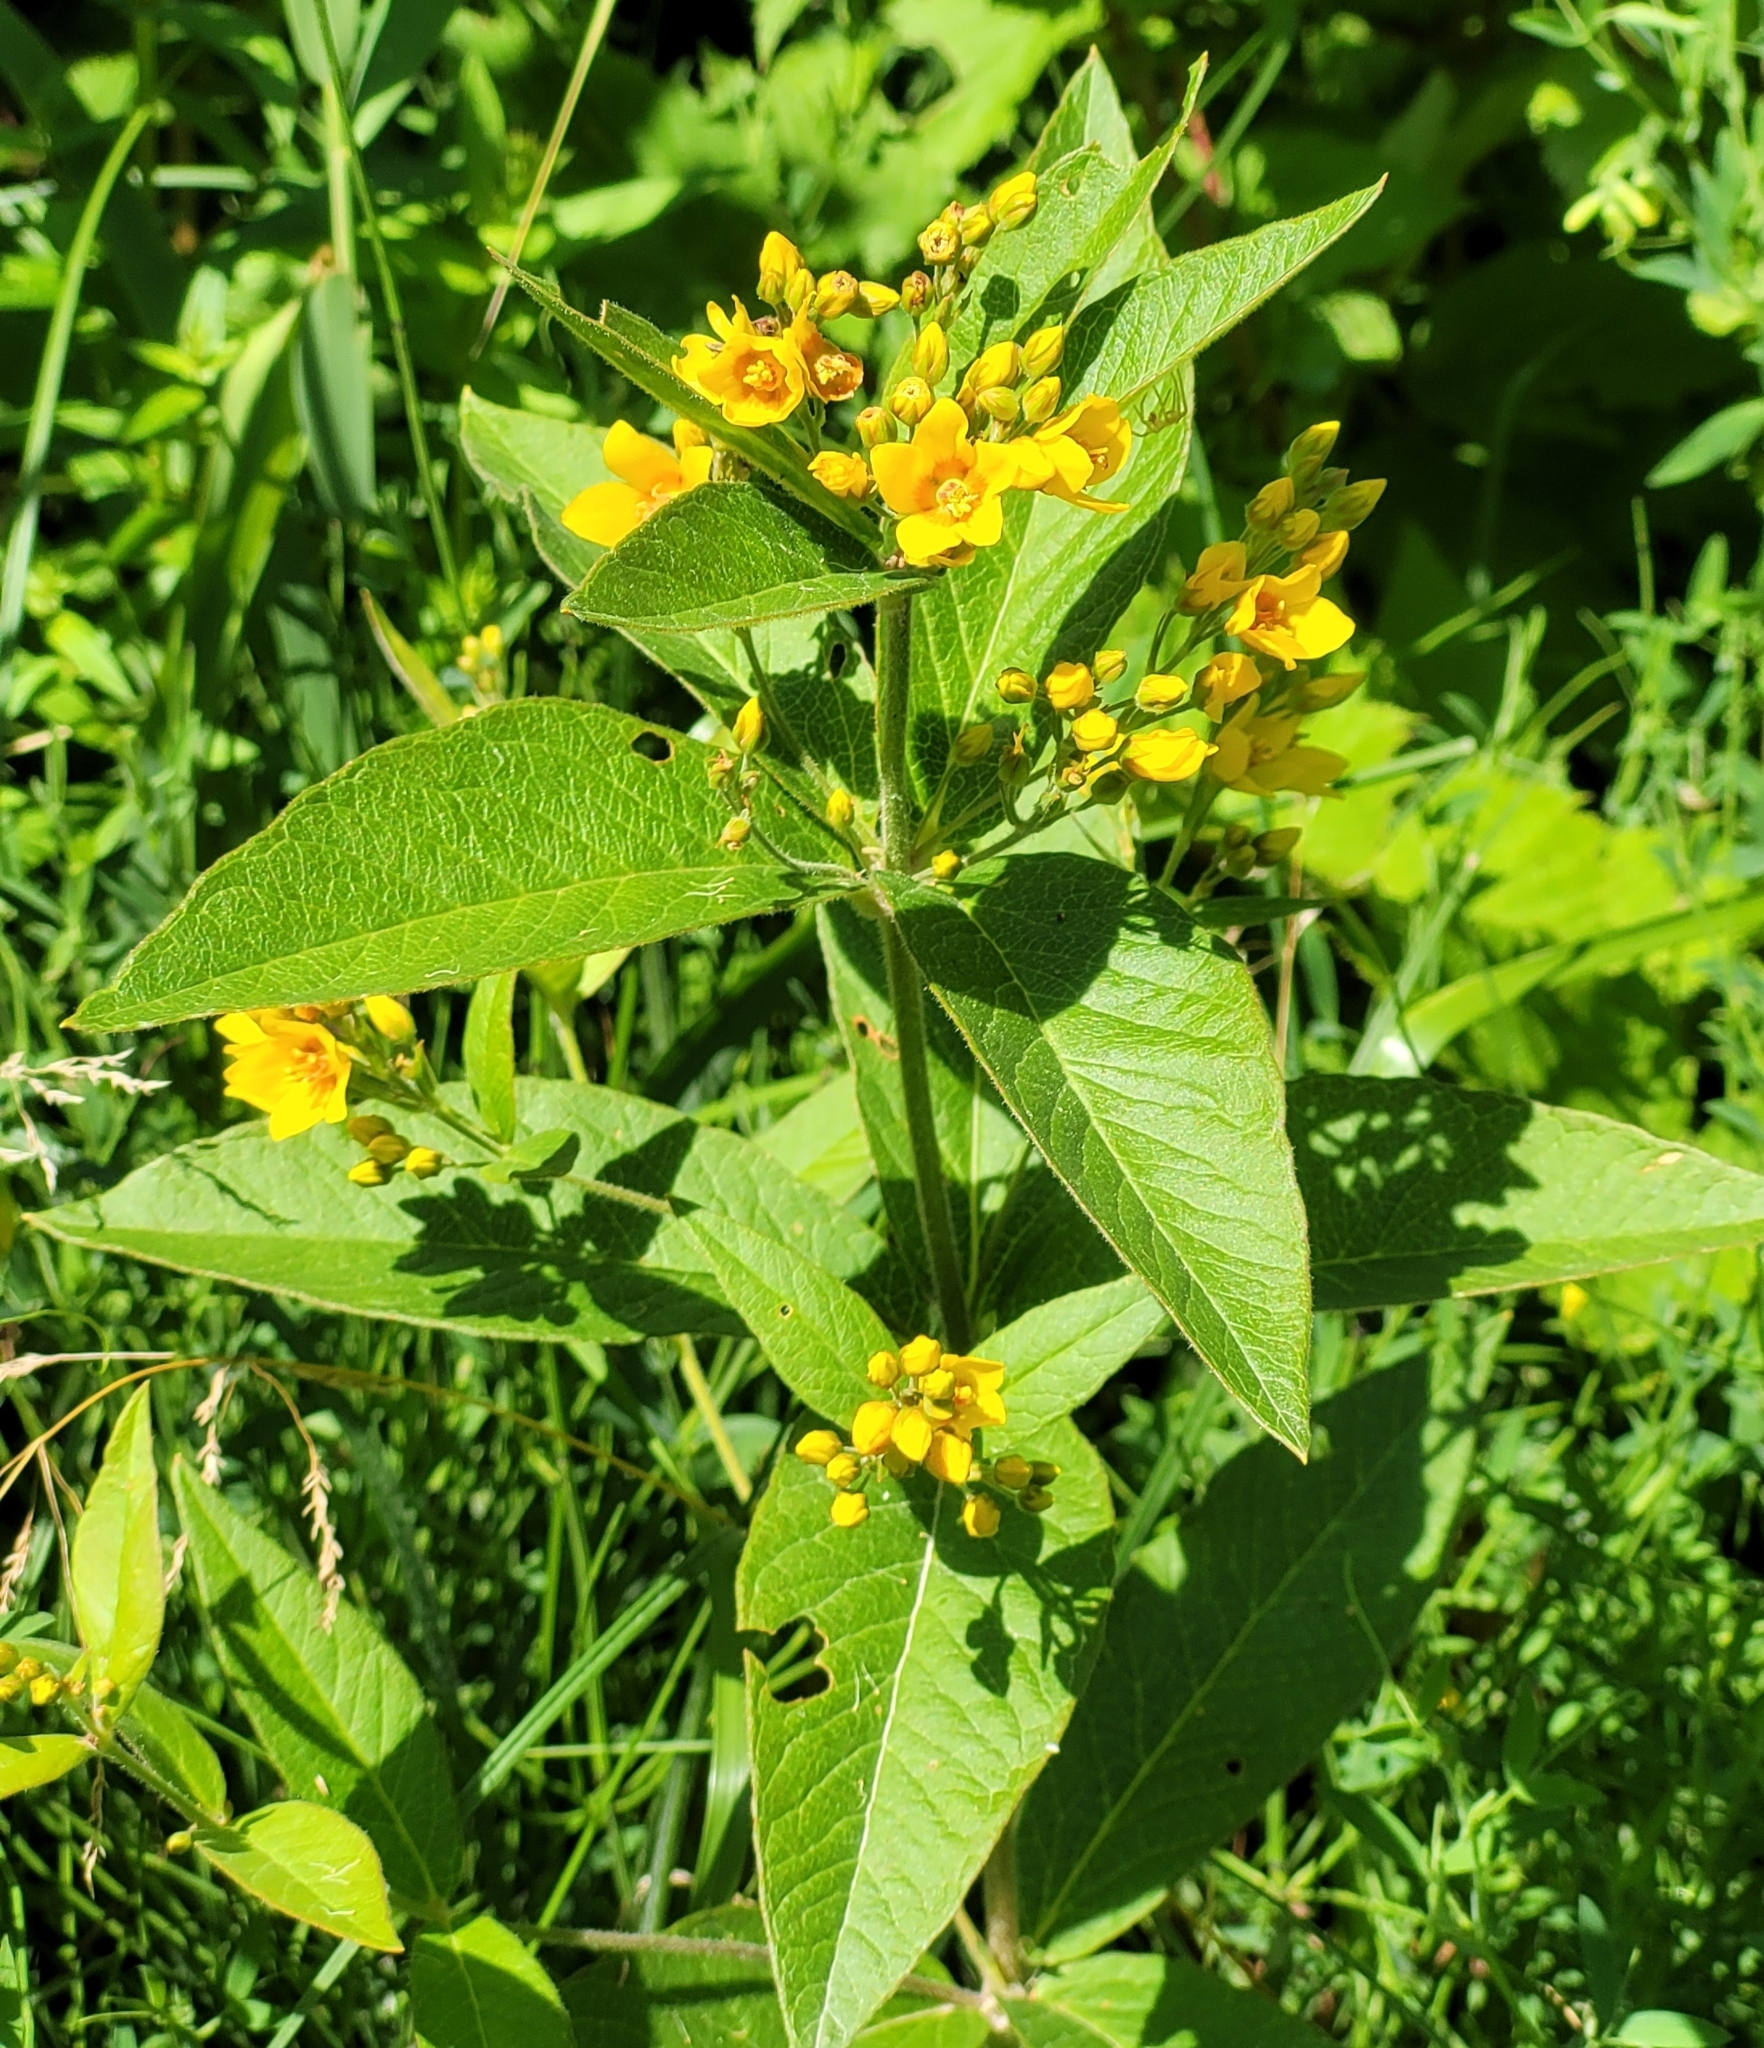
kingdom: Plantae
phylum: Tracheophyta
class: Magnoliopsida
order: Ericales
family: Primulaceae
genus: Lysimachia
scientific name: Lysimachia vulgaris
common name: Yellow loosestrife
